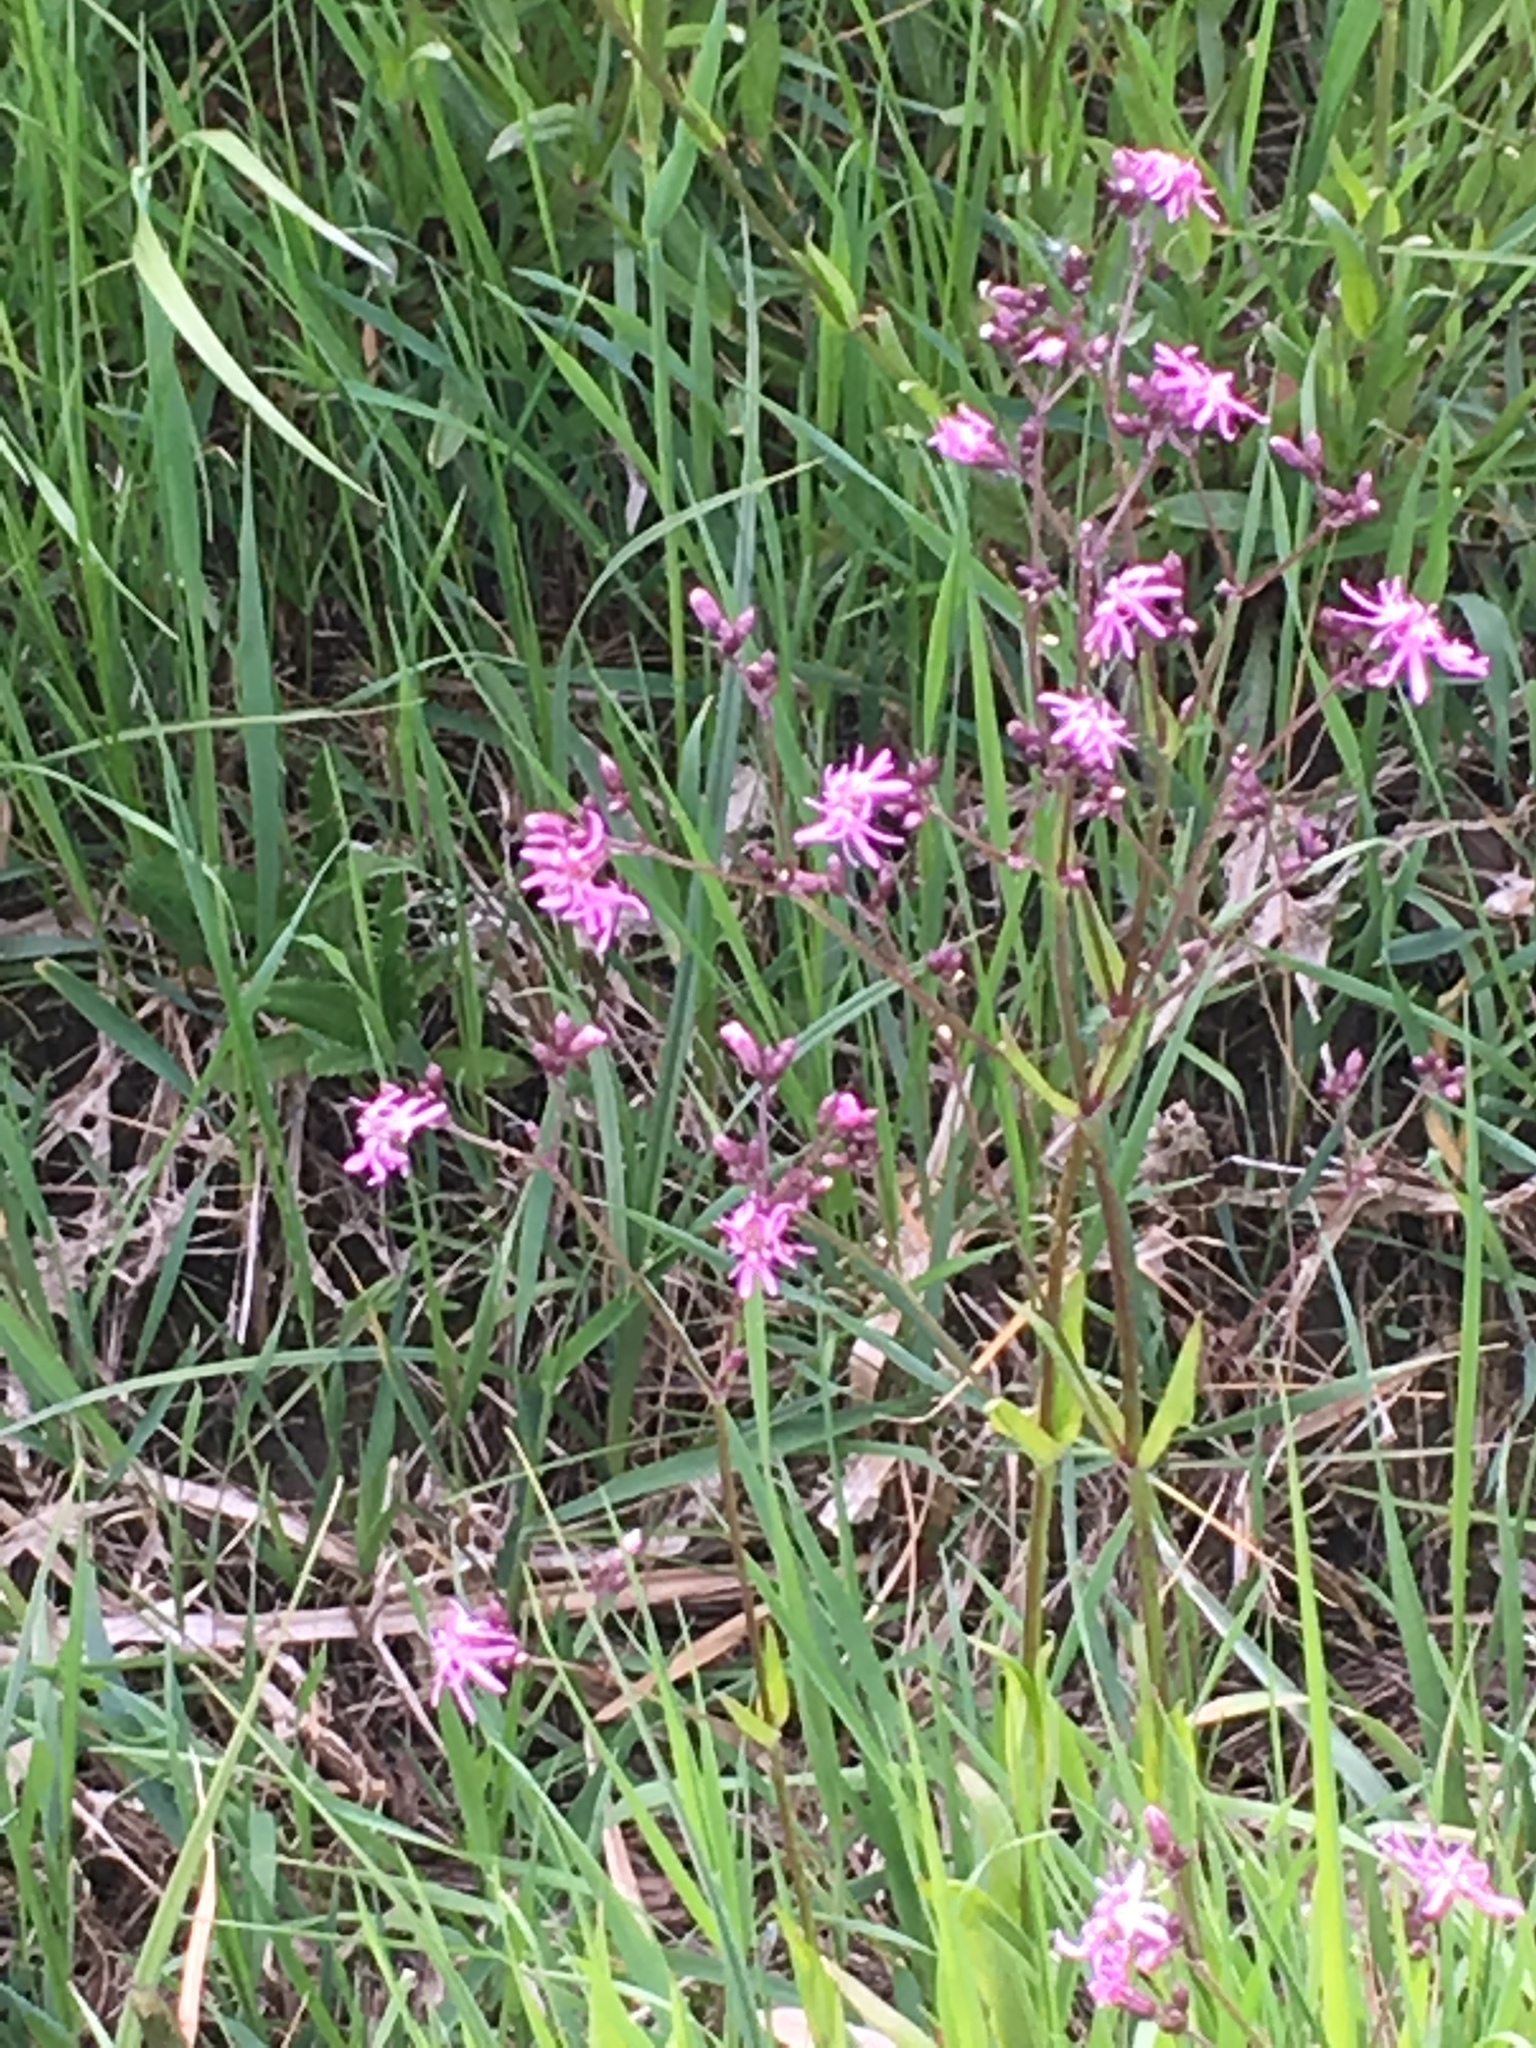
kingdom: Plantae
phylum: Tracheophyta
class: Magnoliopsida
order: Caryophyllales
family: Caryophyllaceae
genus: Silene
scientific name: Silene flos-cuculi
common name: Ragged-robin
